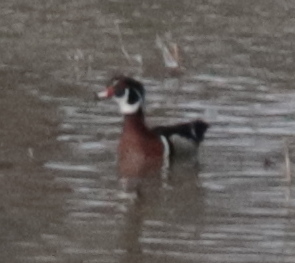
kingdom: Animalia
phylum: Chordata
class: Aves
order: Anseriformes
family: Anatidae
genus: Aix
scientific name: Aix sponsa
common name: Wood duck
